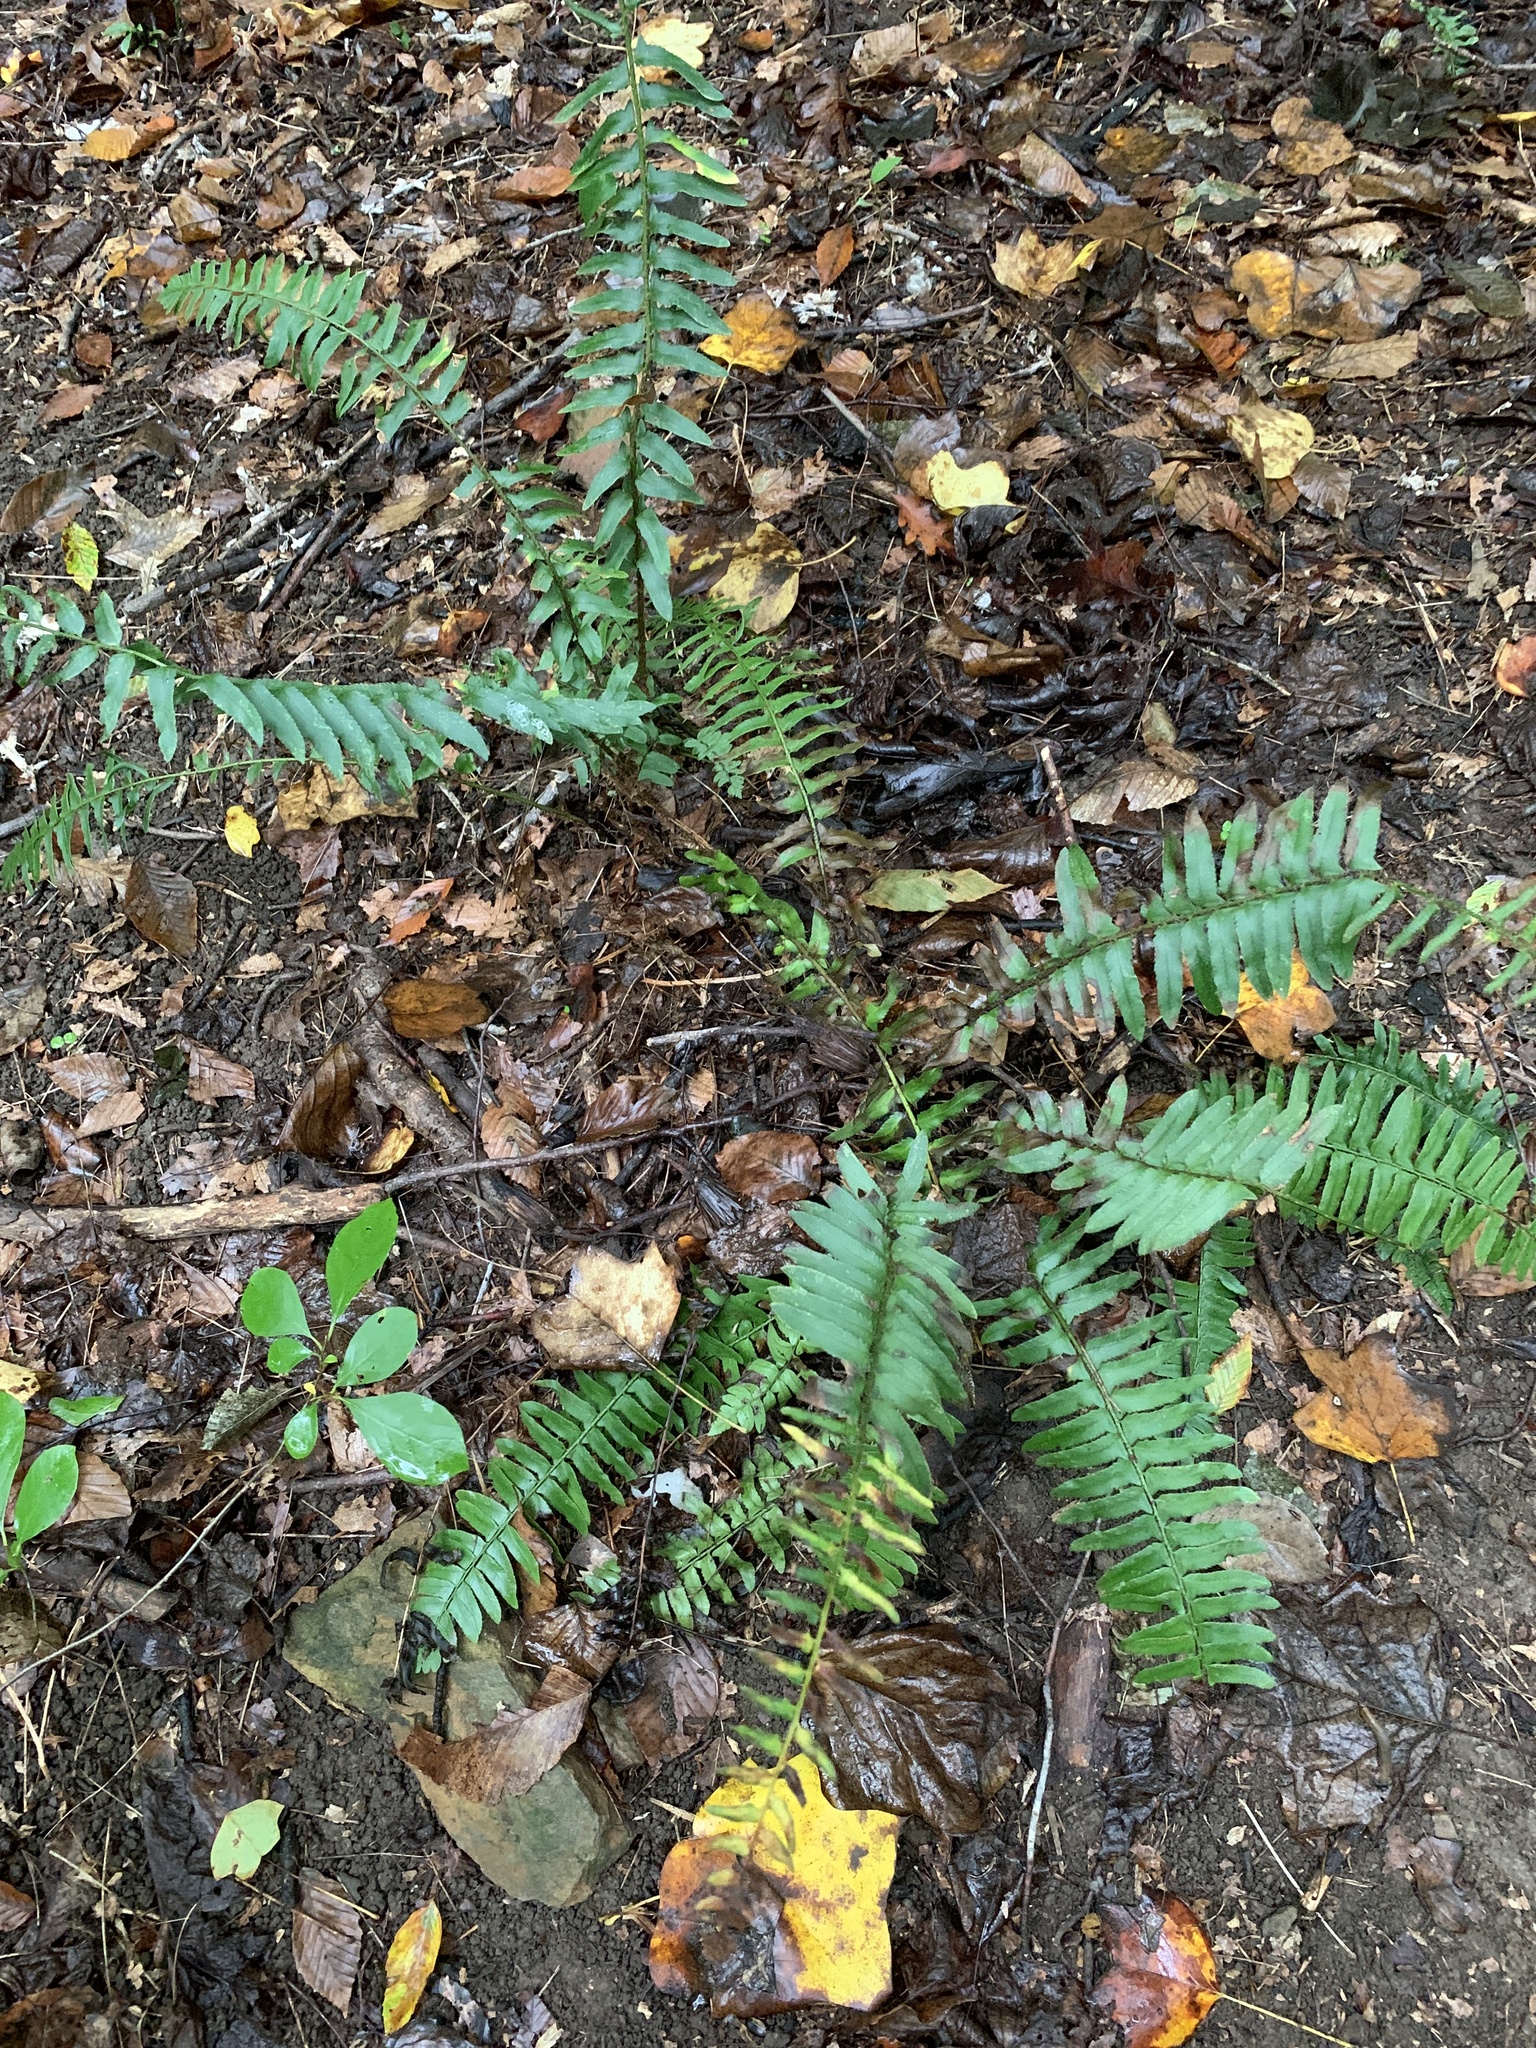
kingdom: Plantae
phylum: Tracheophyta
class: Polypodiopsida
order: Polypodiales
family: Dryopteridaceae
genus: Polystichum
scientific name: Polystichum acrostichoides
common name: Christmas fern
